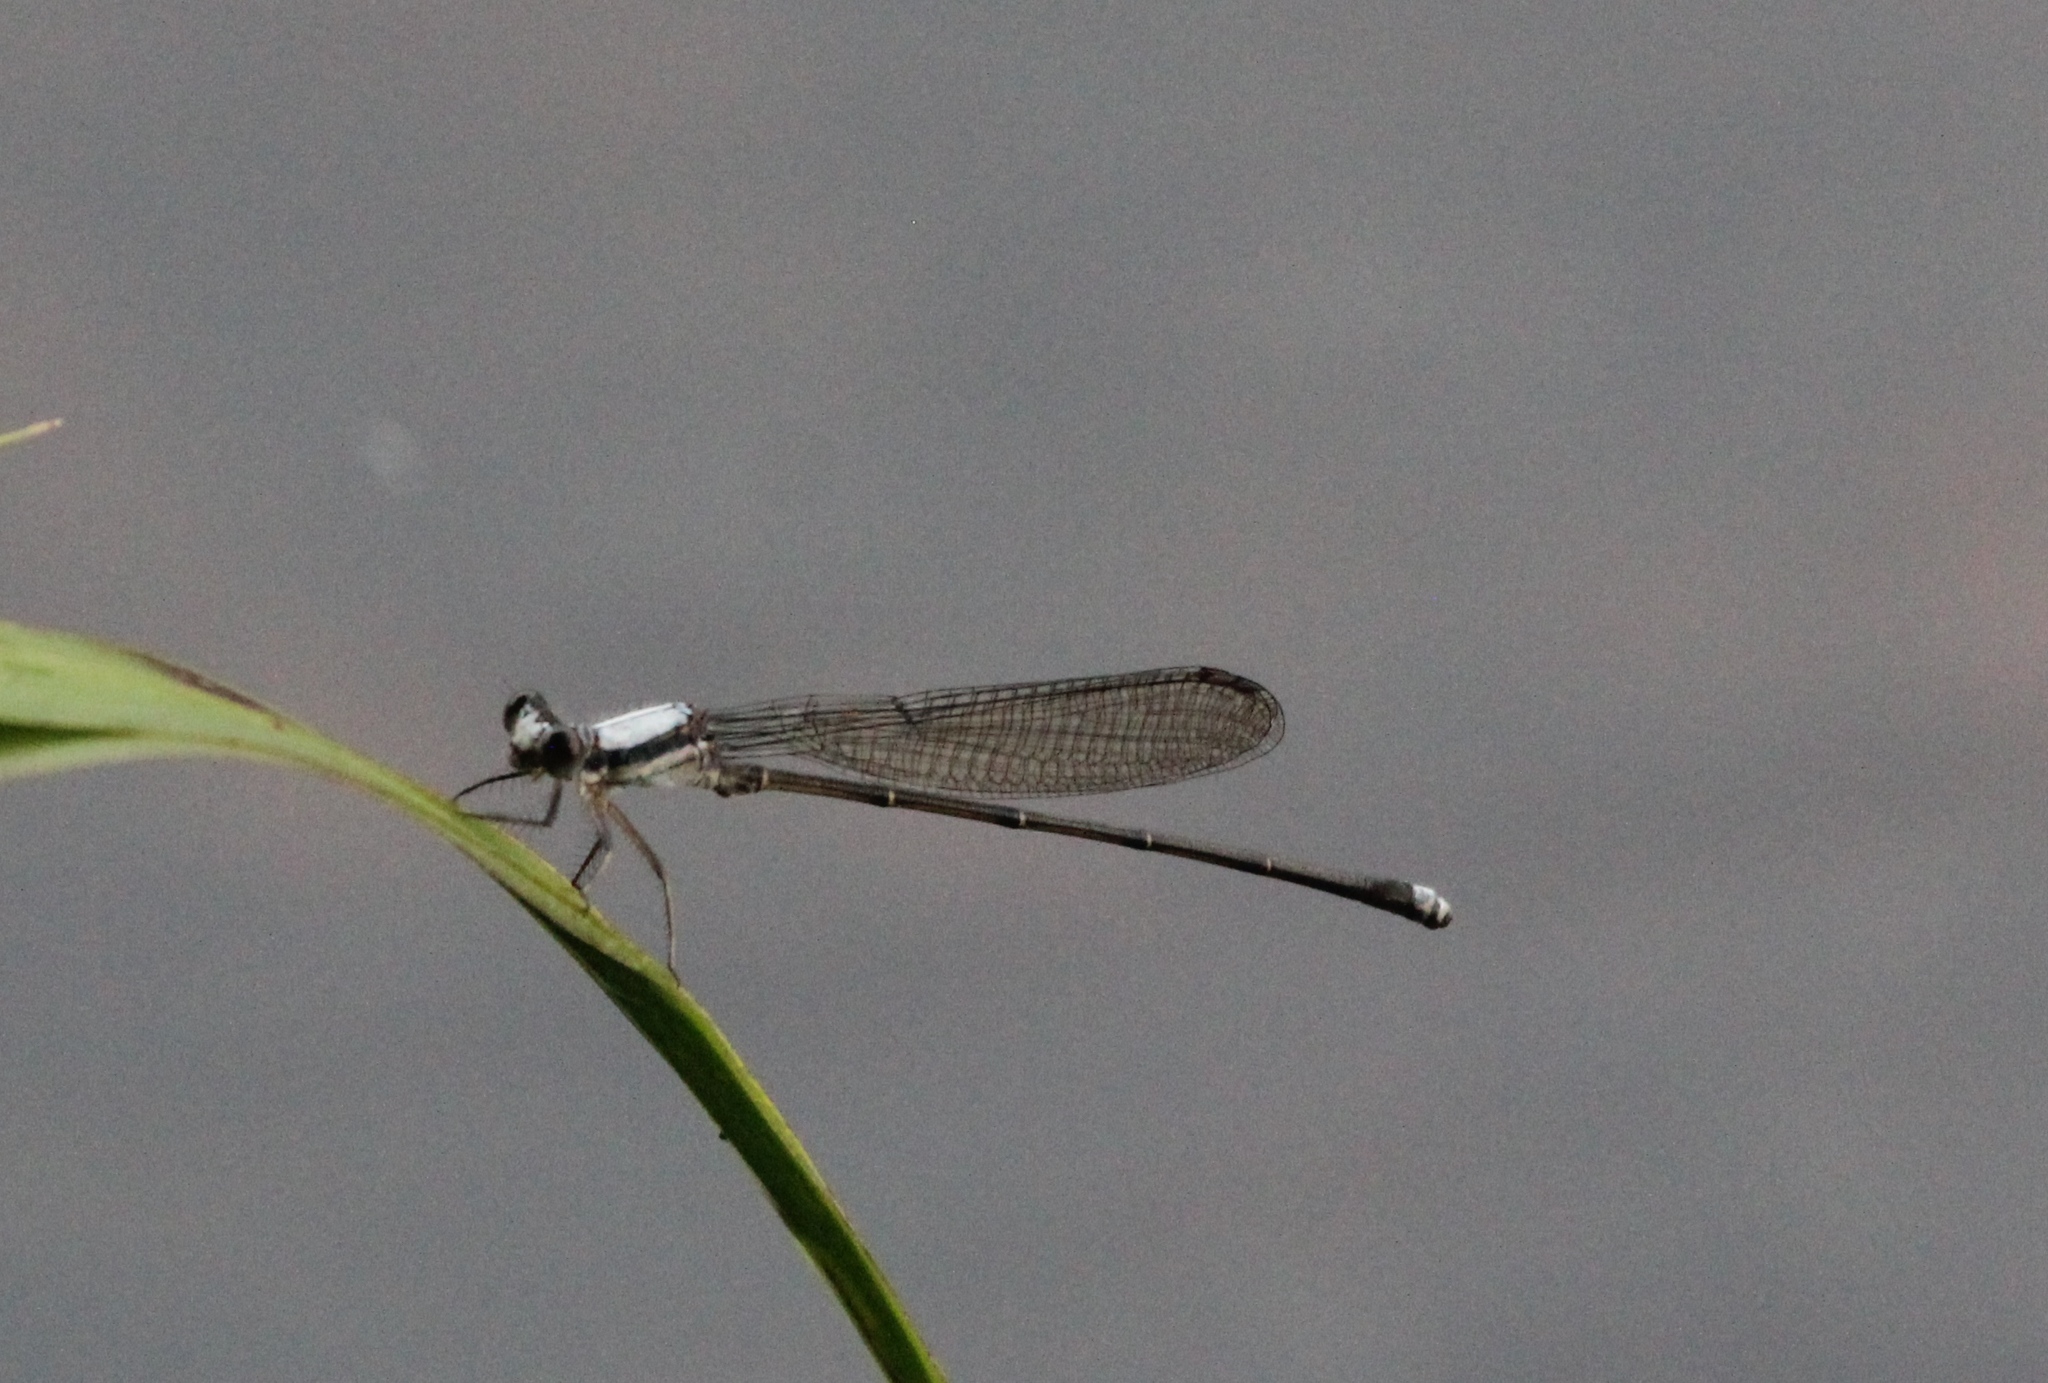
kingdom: Animalia
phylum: Arthropoda
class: Insecta
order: Odonata
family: Coenagrionidae
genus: Argia
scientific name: Argia moesta
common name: Powdered dancer
